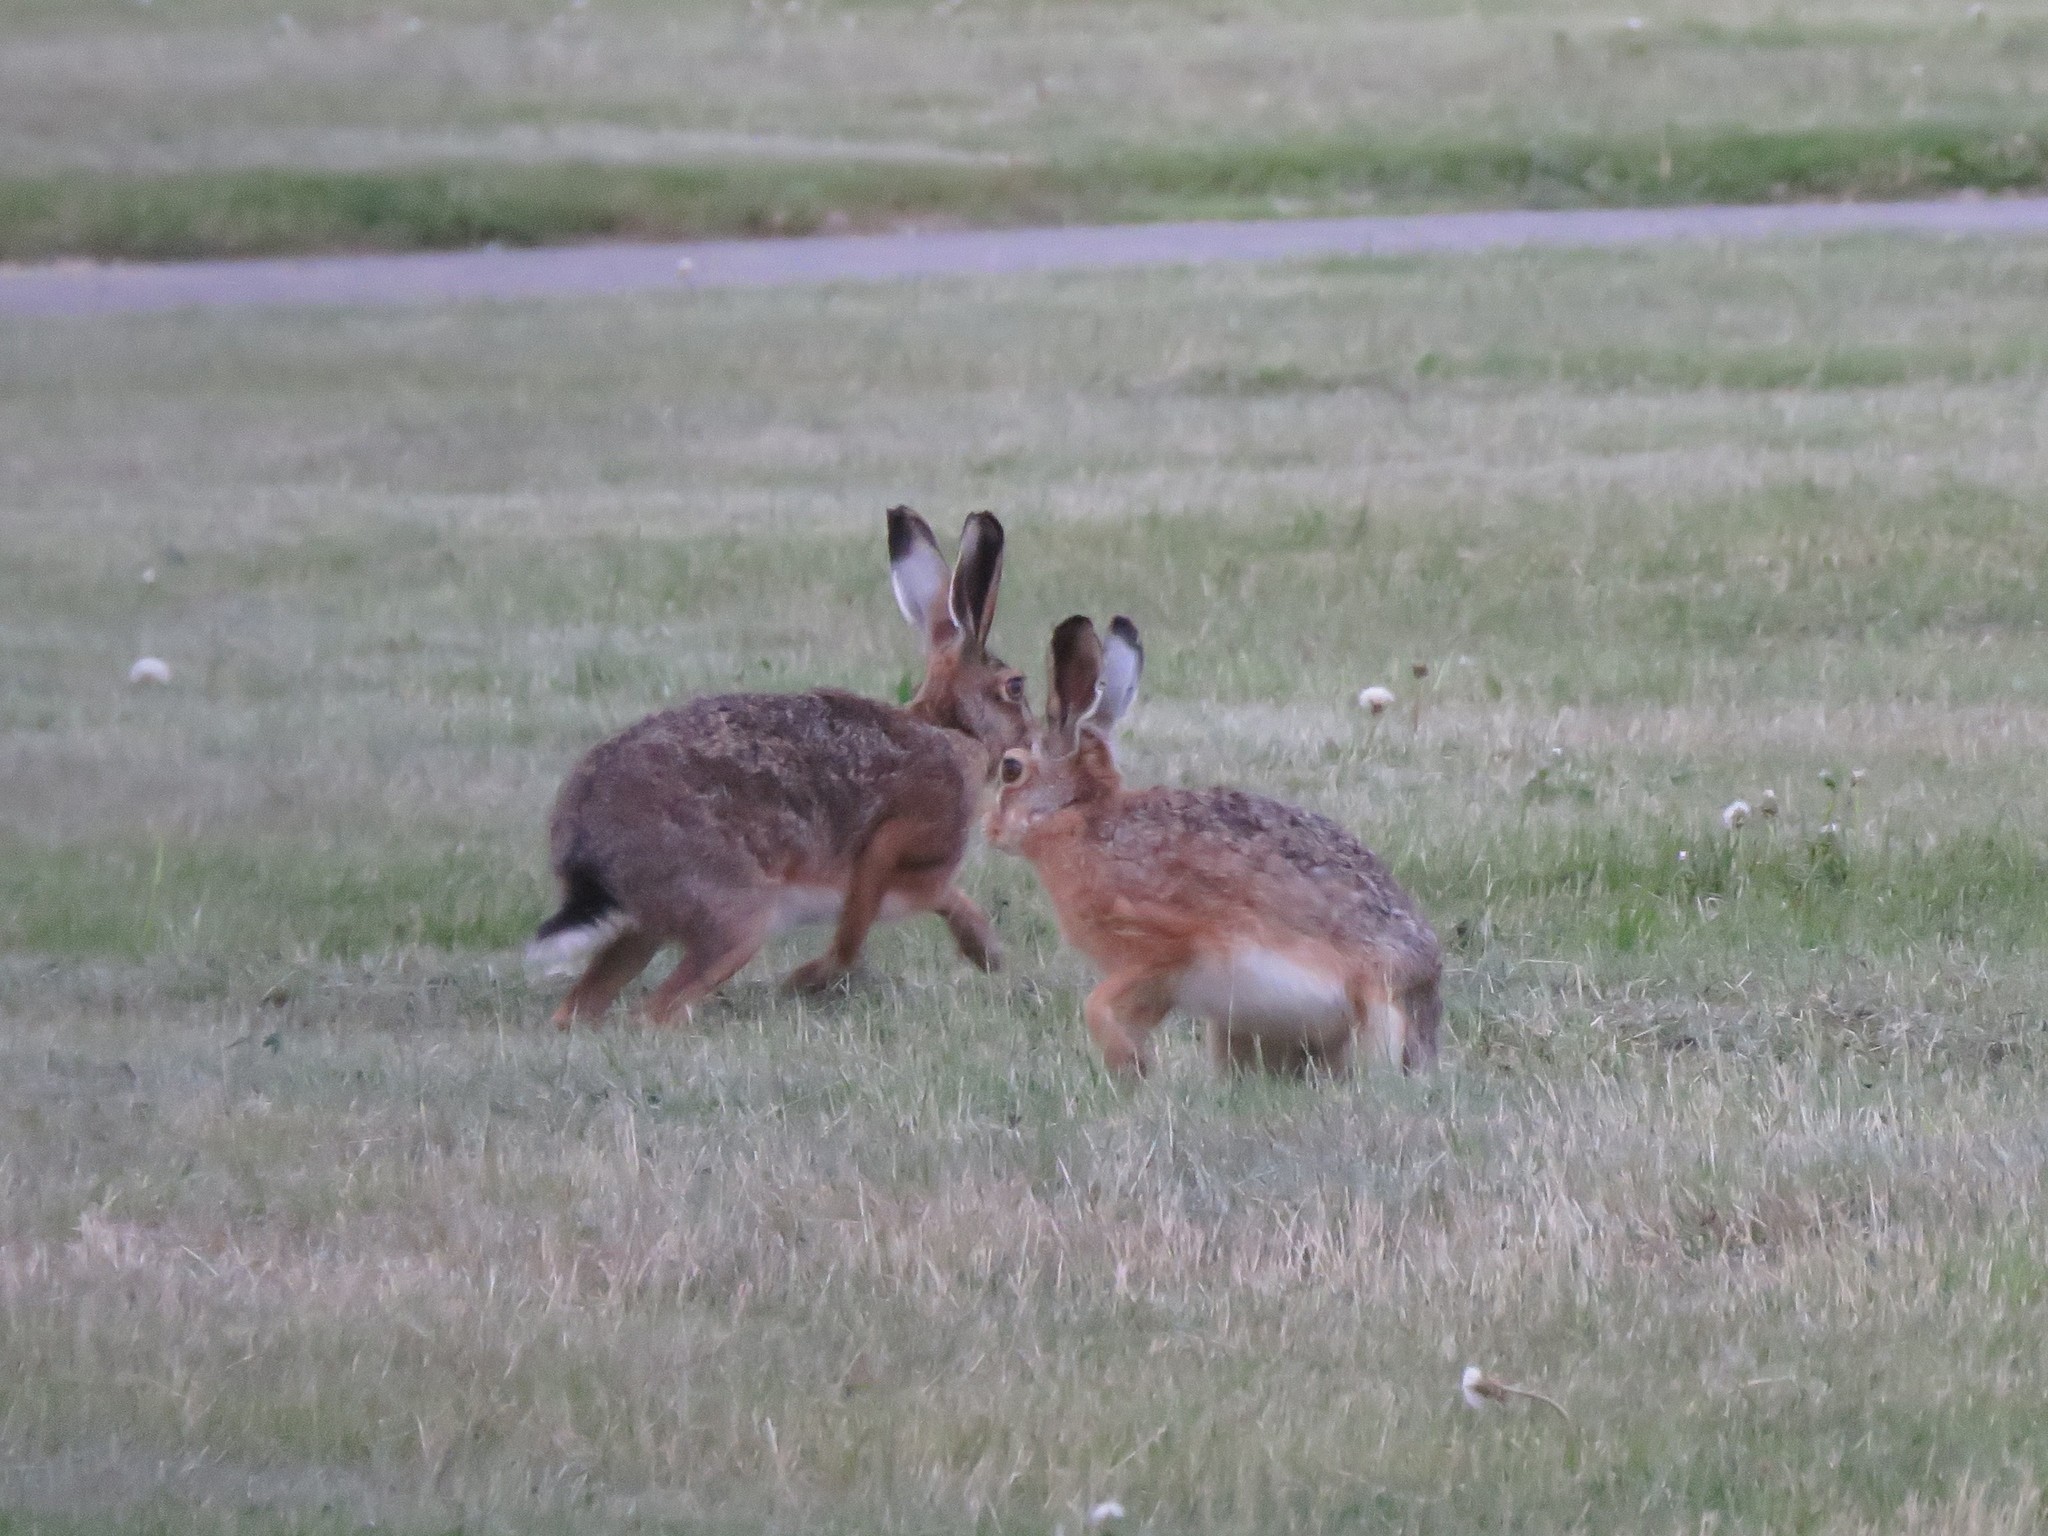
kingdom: Animalia
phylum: Chordata
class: Mammalia
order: Lagomorpha
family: Leporidae
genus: Lepus
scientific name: Lepus europaeus
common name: European hare
